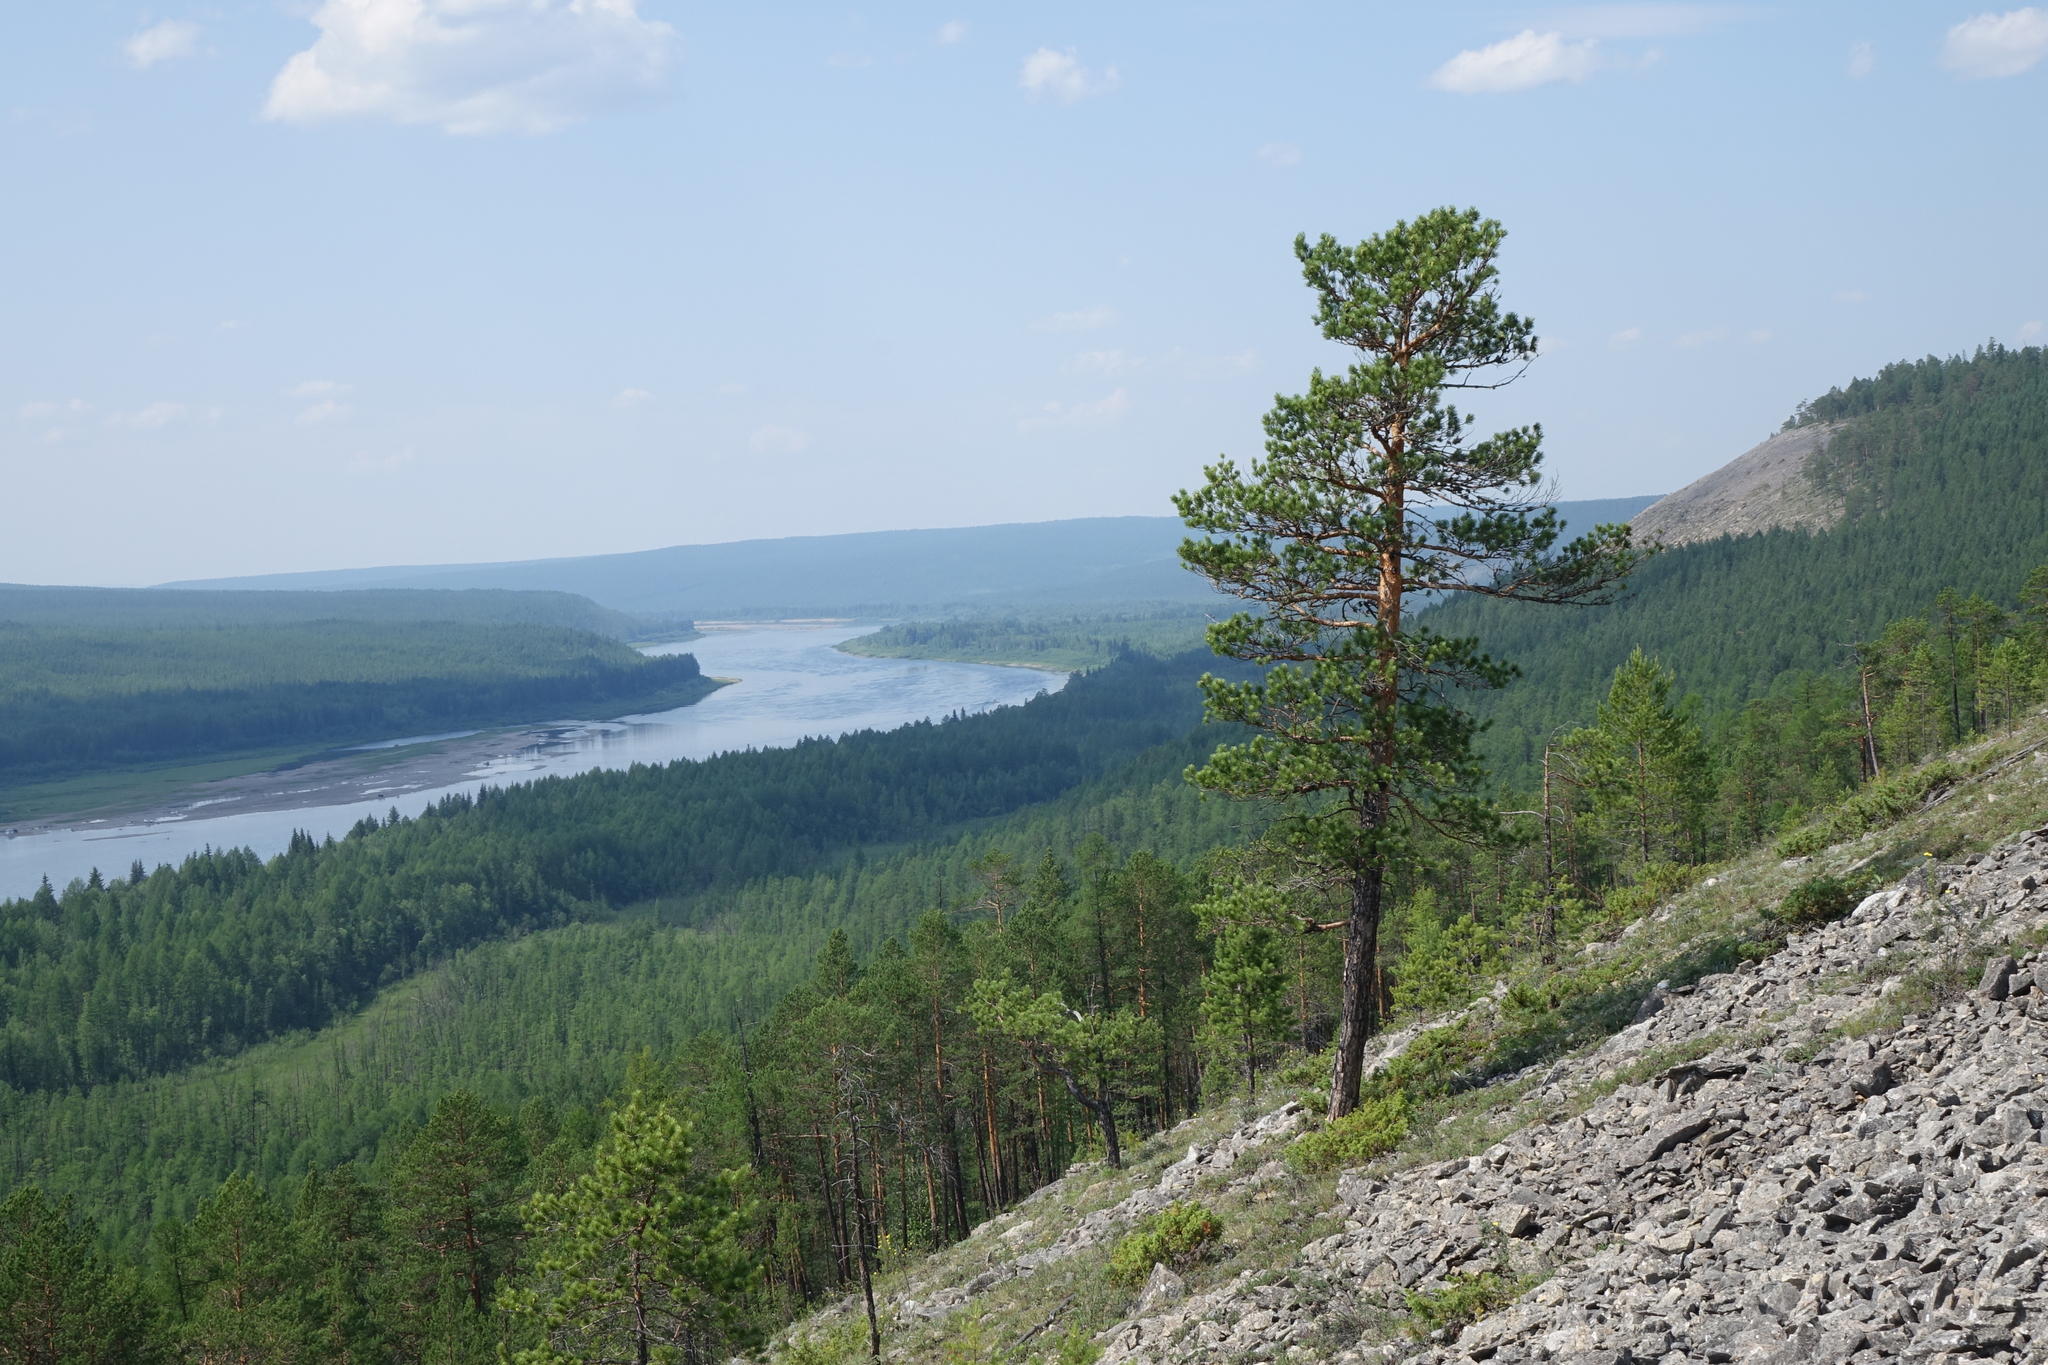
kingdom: Plantae
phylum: Tracheophyta
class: Pinopsida
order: Pinales
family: Pinaceae
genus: Pinus
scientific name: Pinus sylvestris
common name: Scots pine
